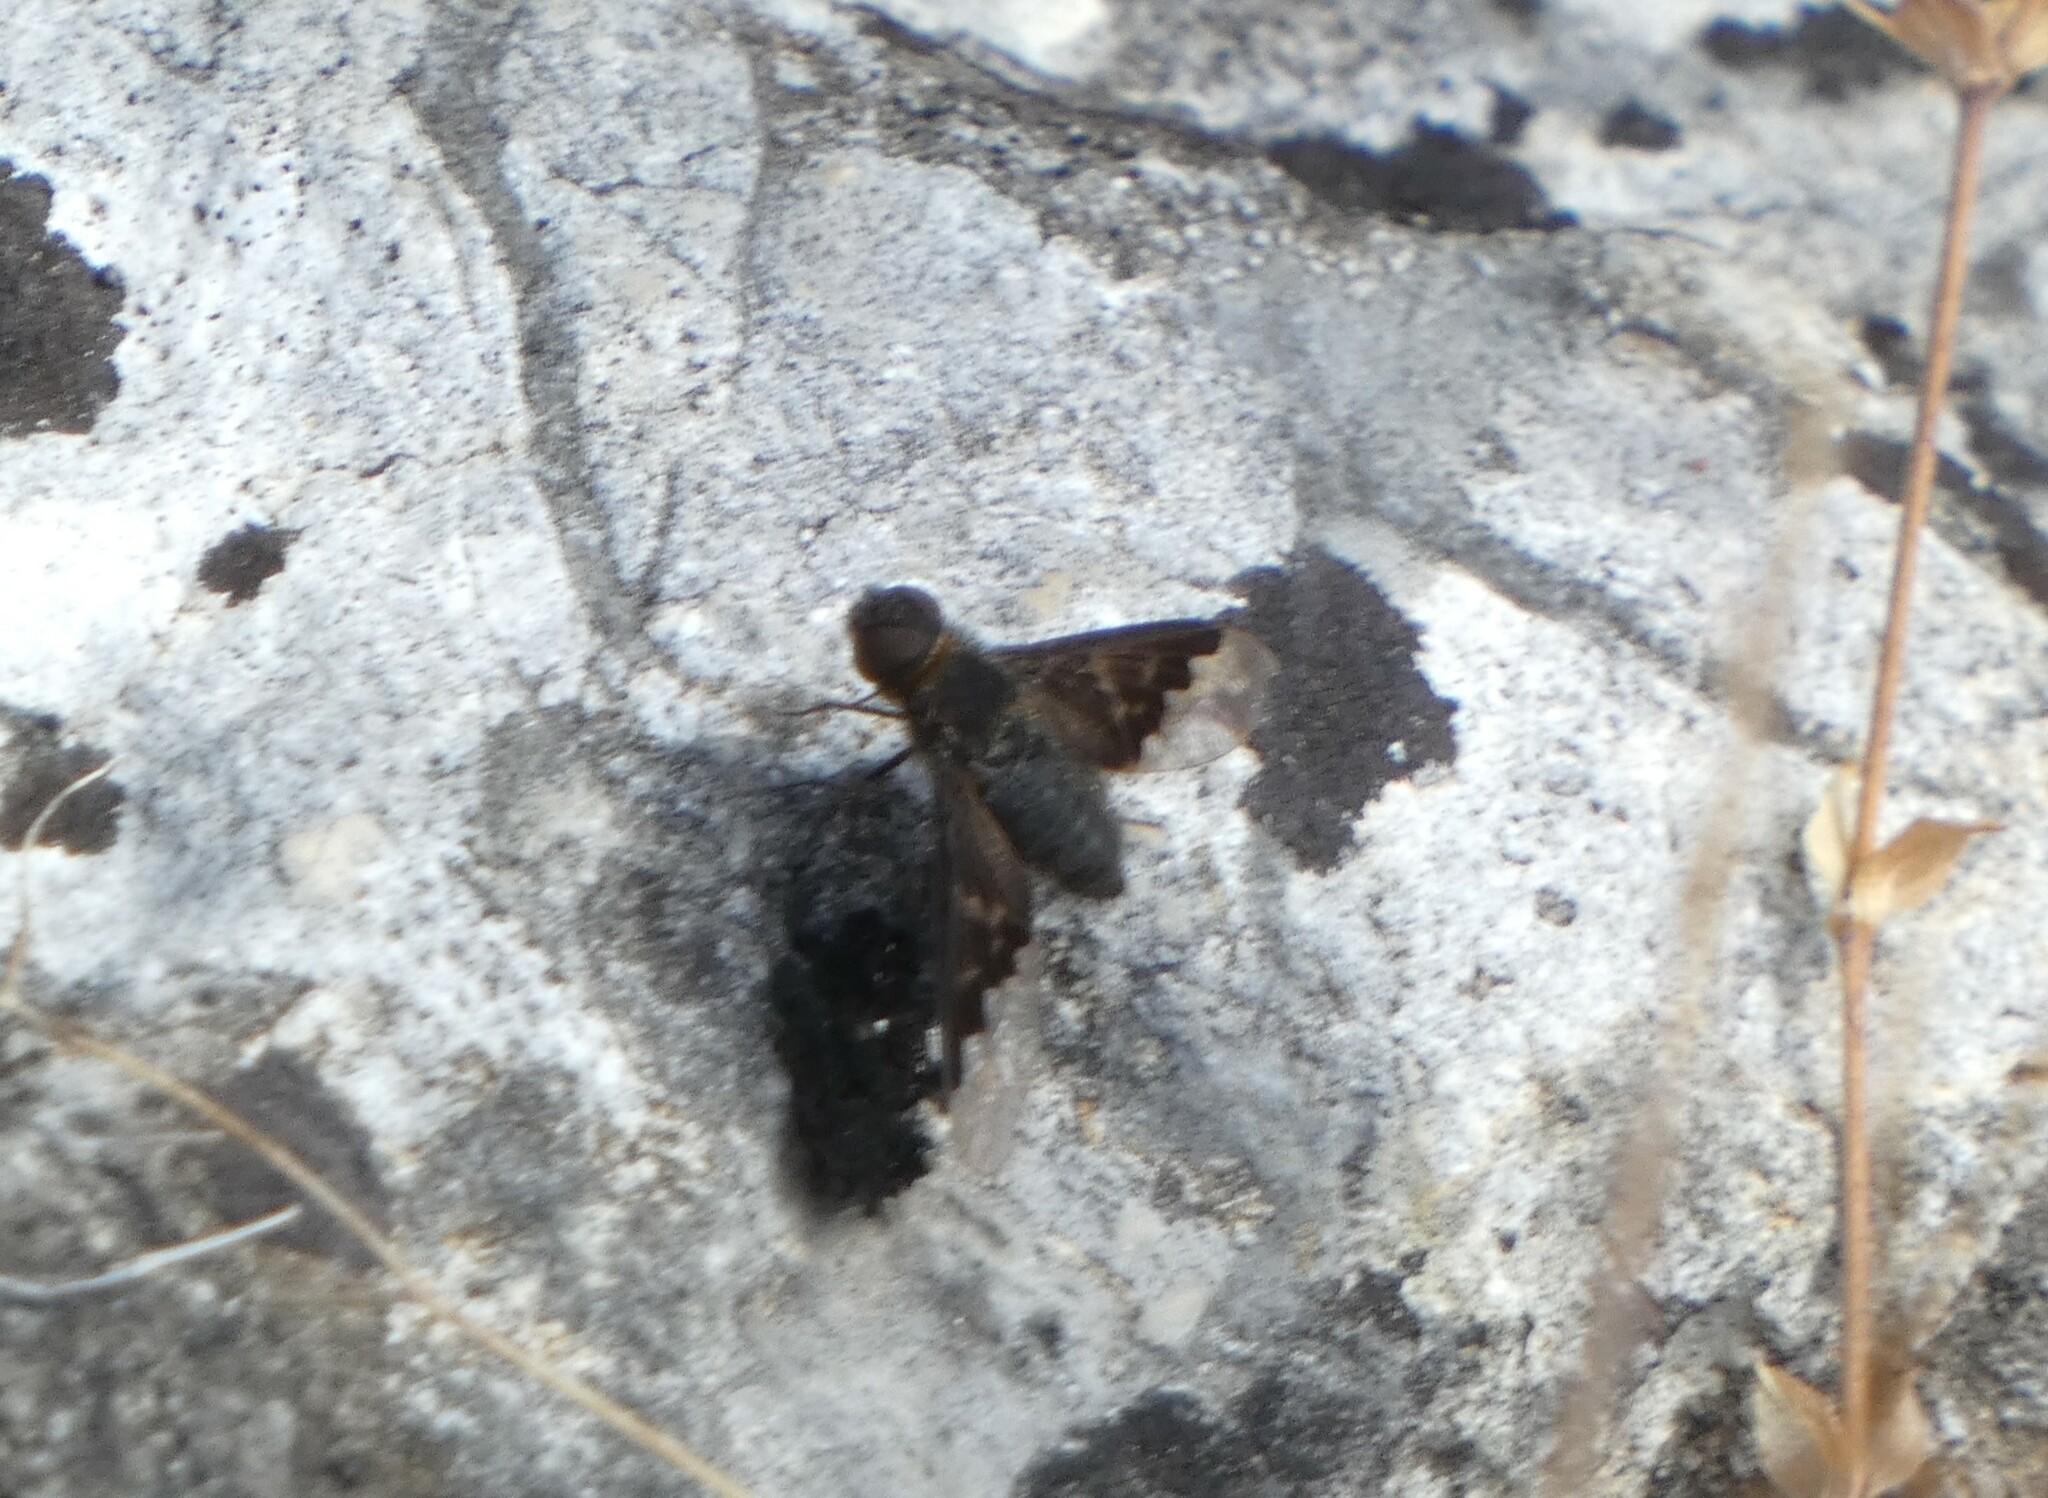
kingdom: Animalia
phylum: Arthropoda
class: Insecta
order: Diptera
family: Bombyliidae
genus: Hemipenthes
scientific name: Hemipenthes morio
